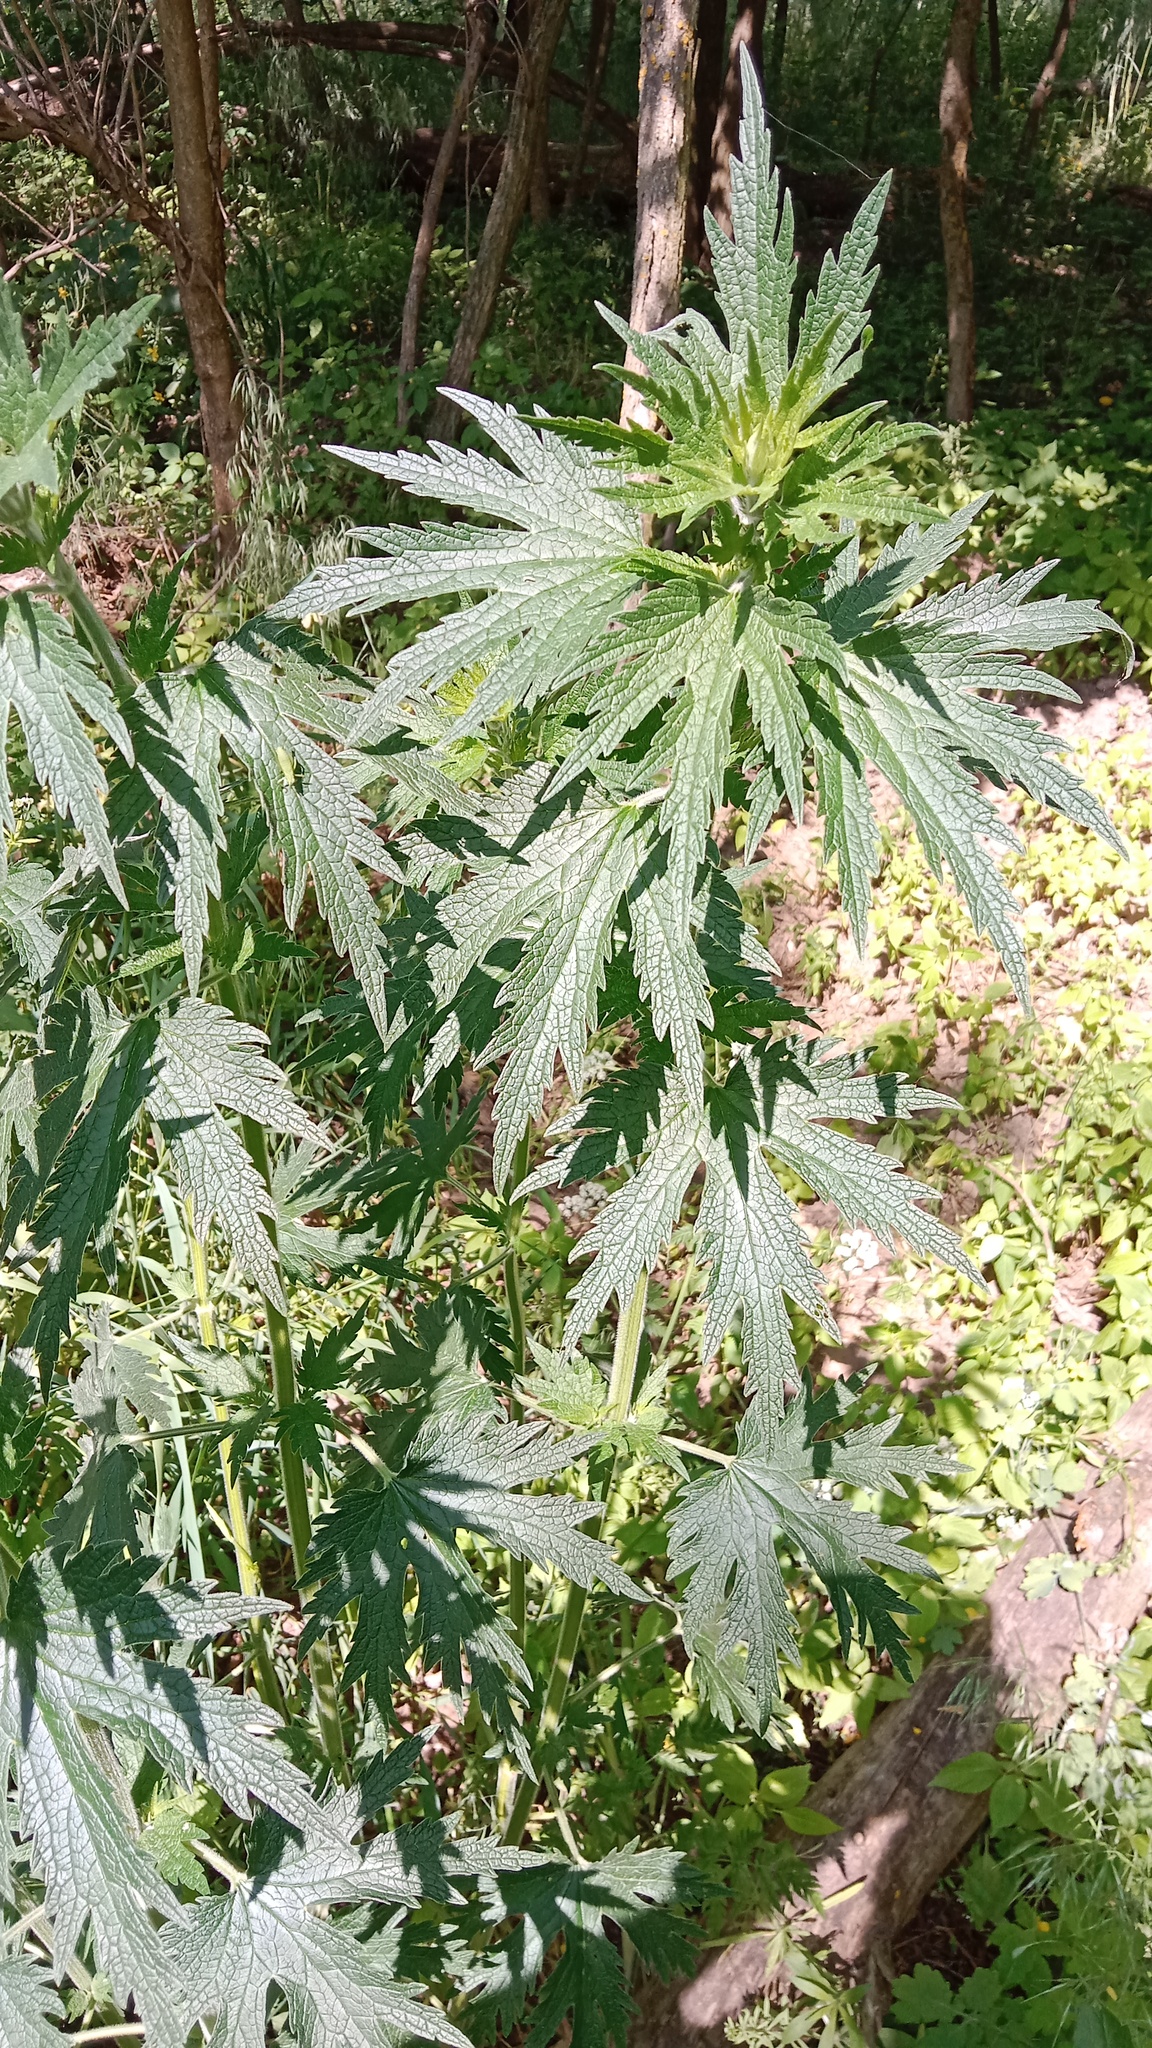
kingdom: Plantae
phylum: Tracheophyta
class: Magnoliopsida
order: Lamiales
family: Lamiaceae
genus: Leonurus
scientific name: Leonurus quinquelobatus
